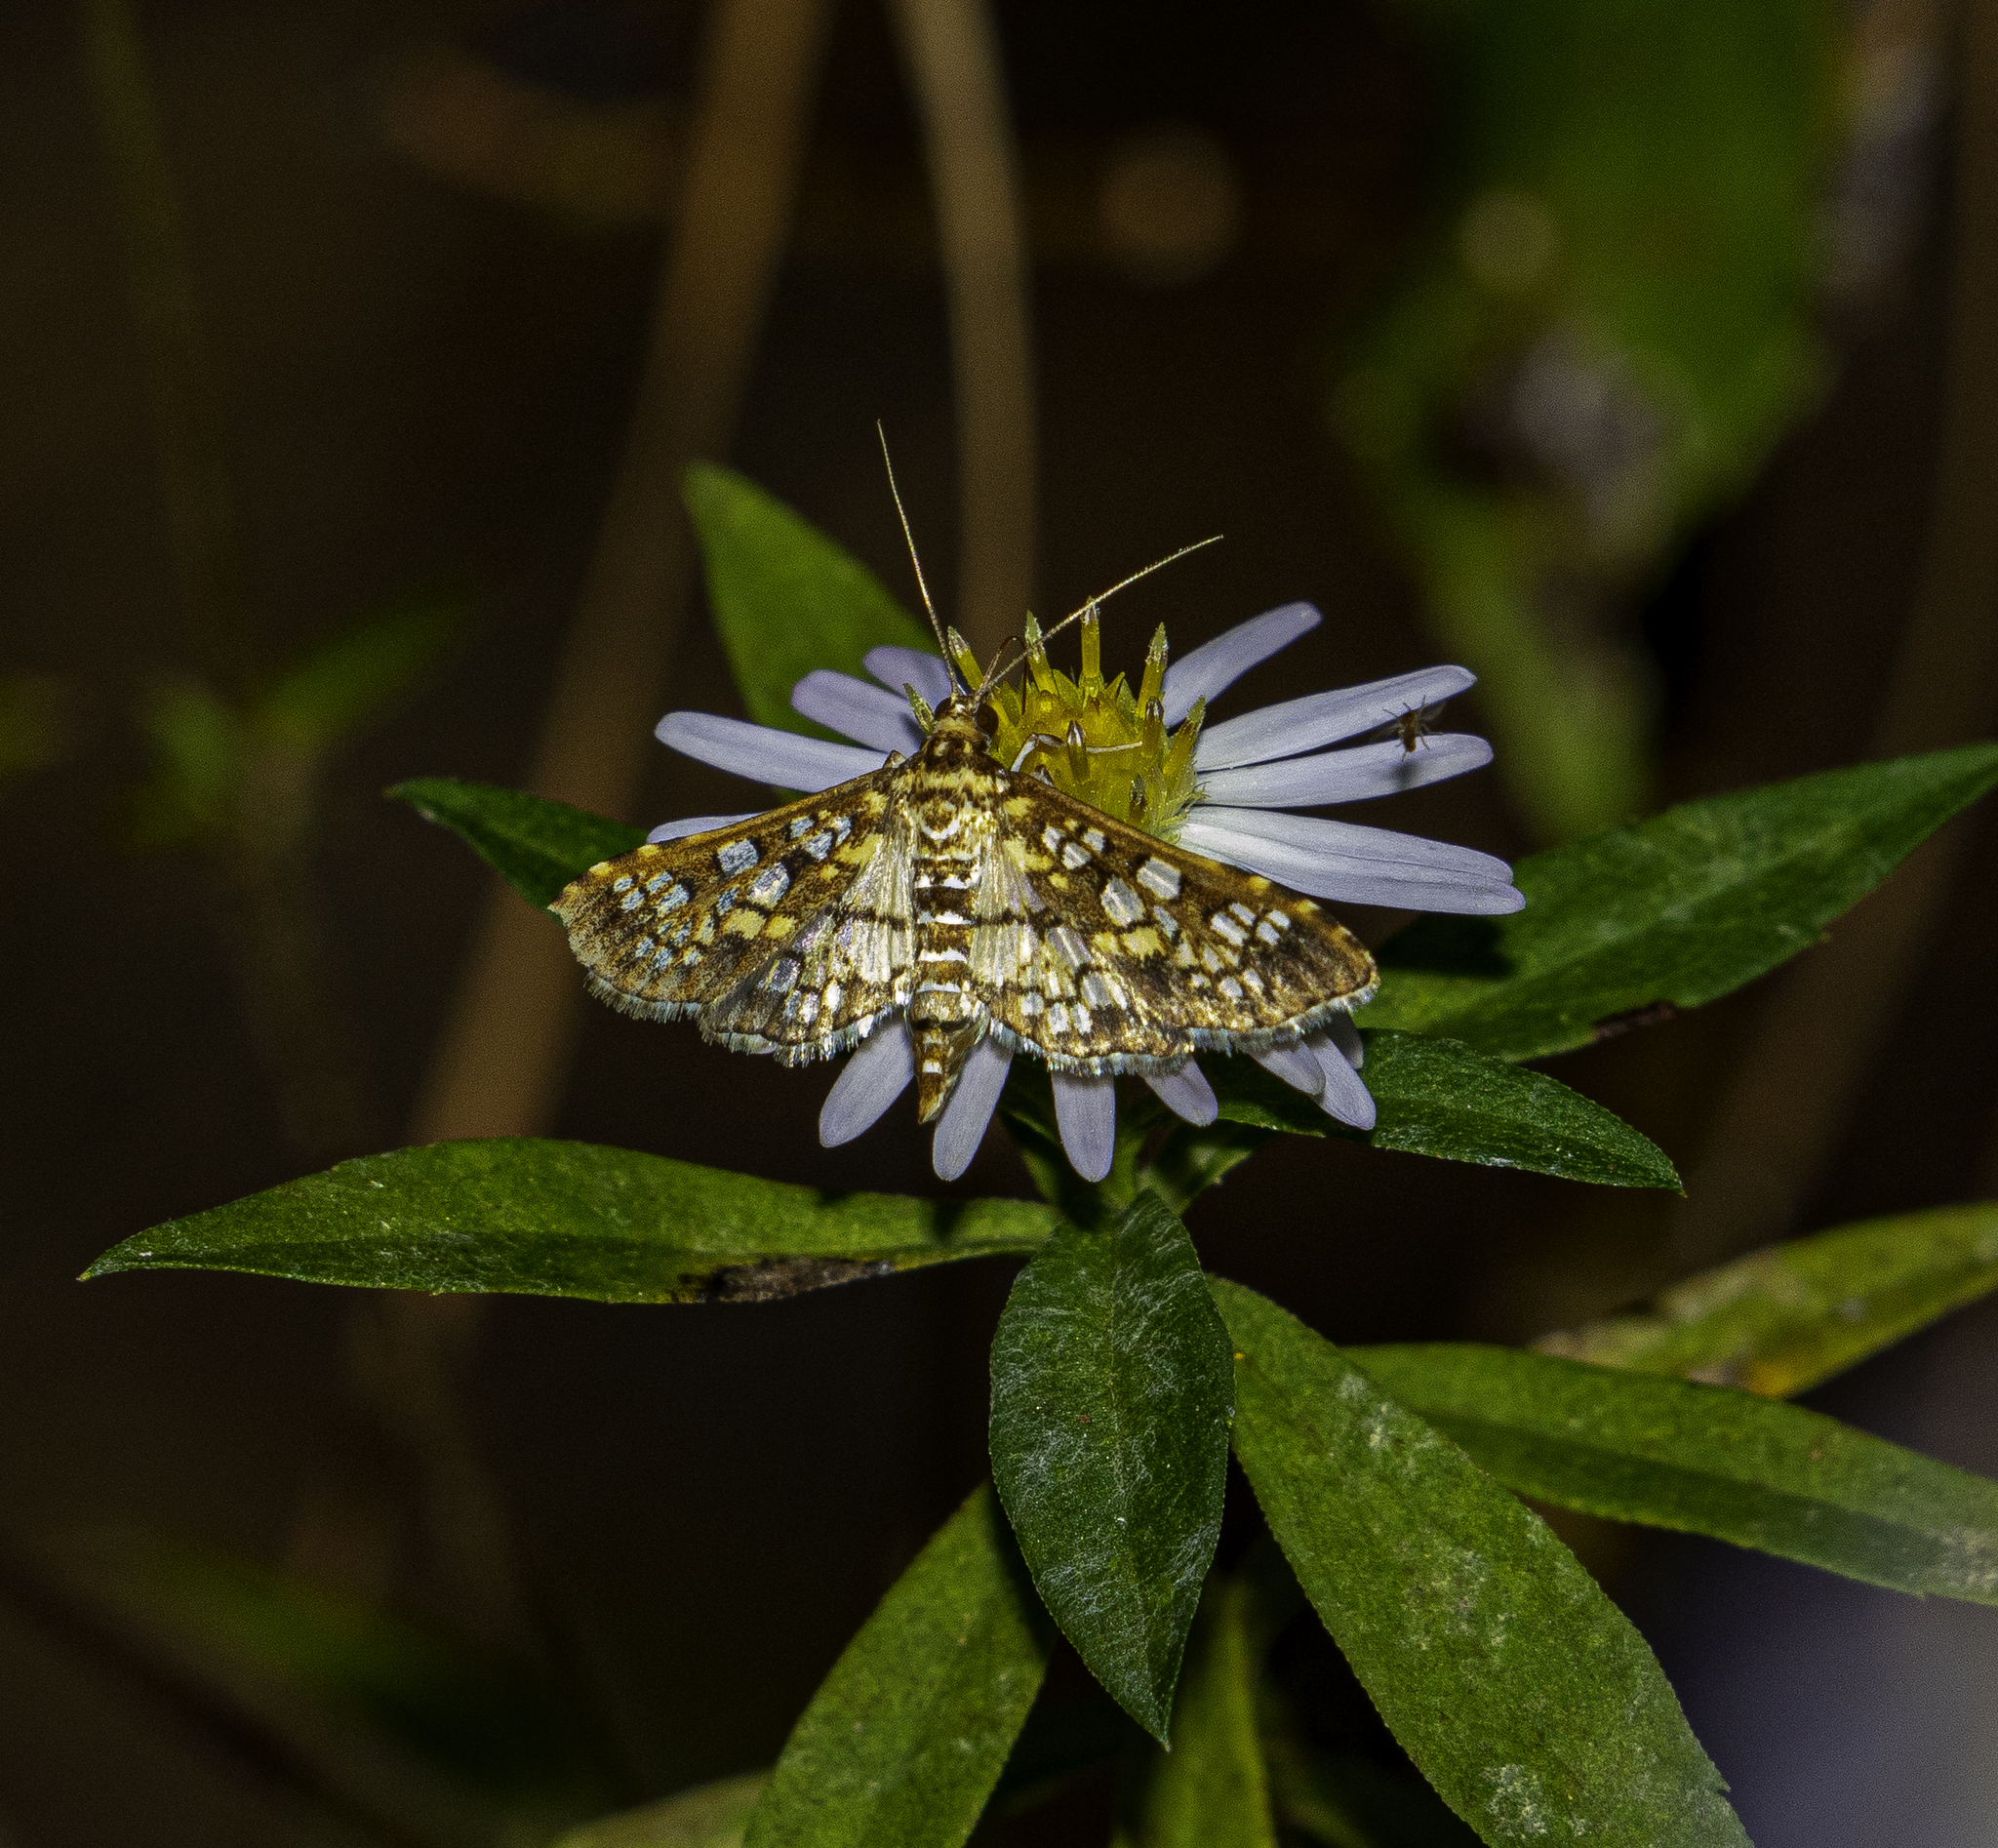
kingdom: Animalia
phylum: Arthropoda
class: Insecta
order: Lepidoptera
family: Crambidae
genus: Samea
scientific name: Samea ecclesialis
